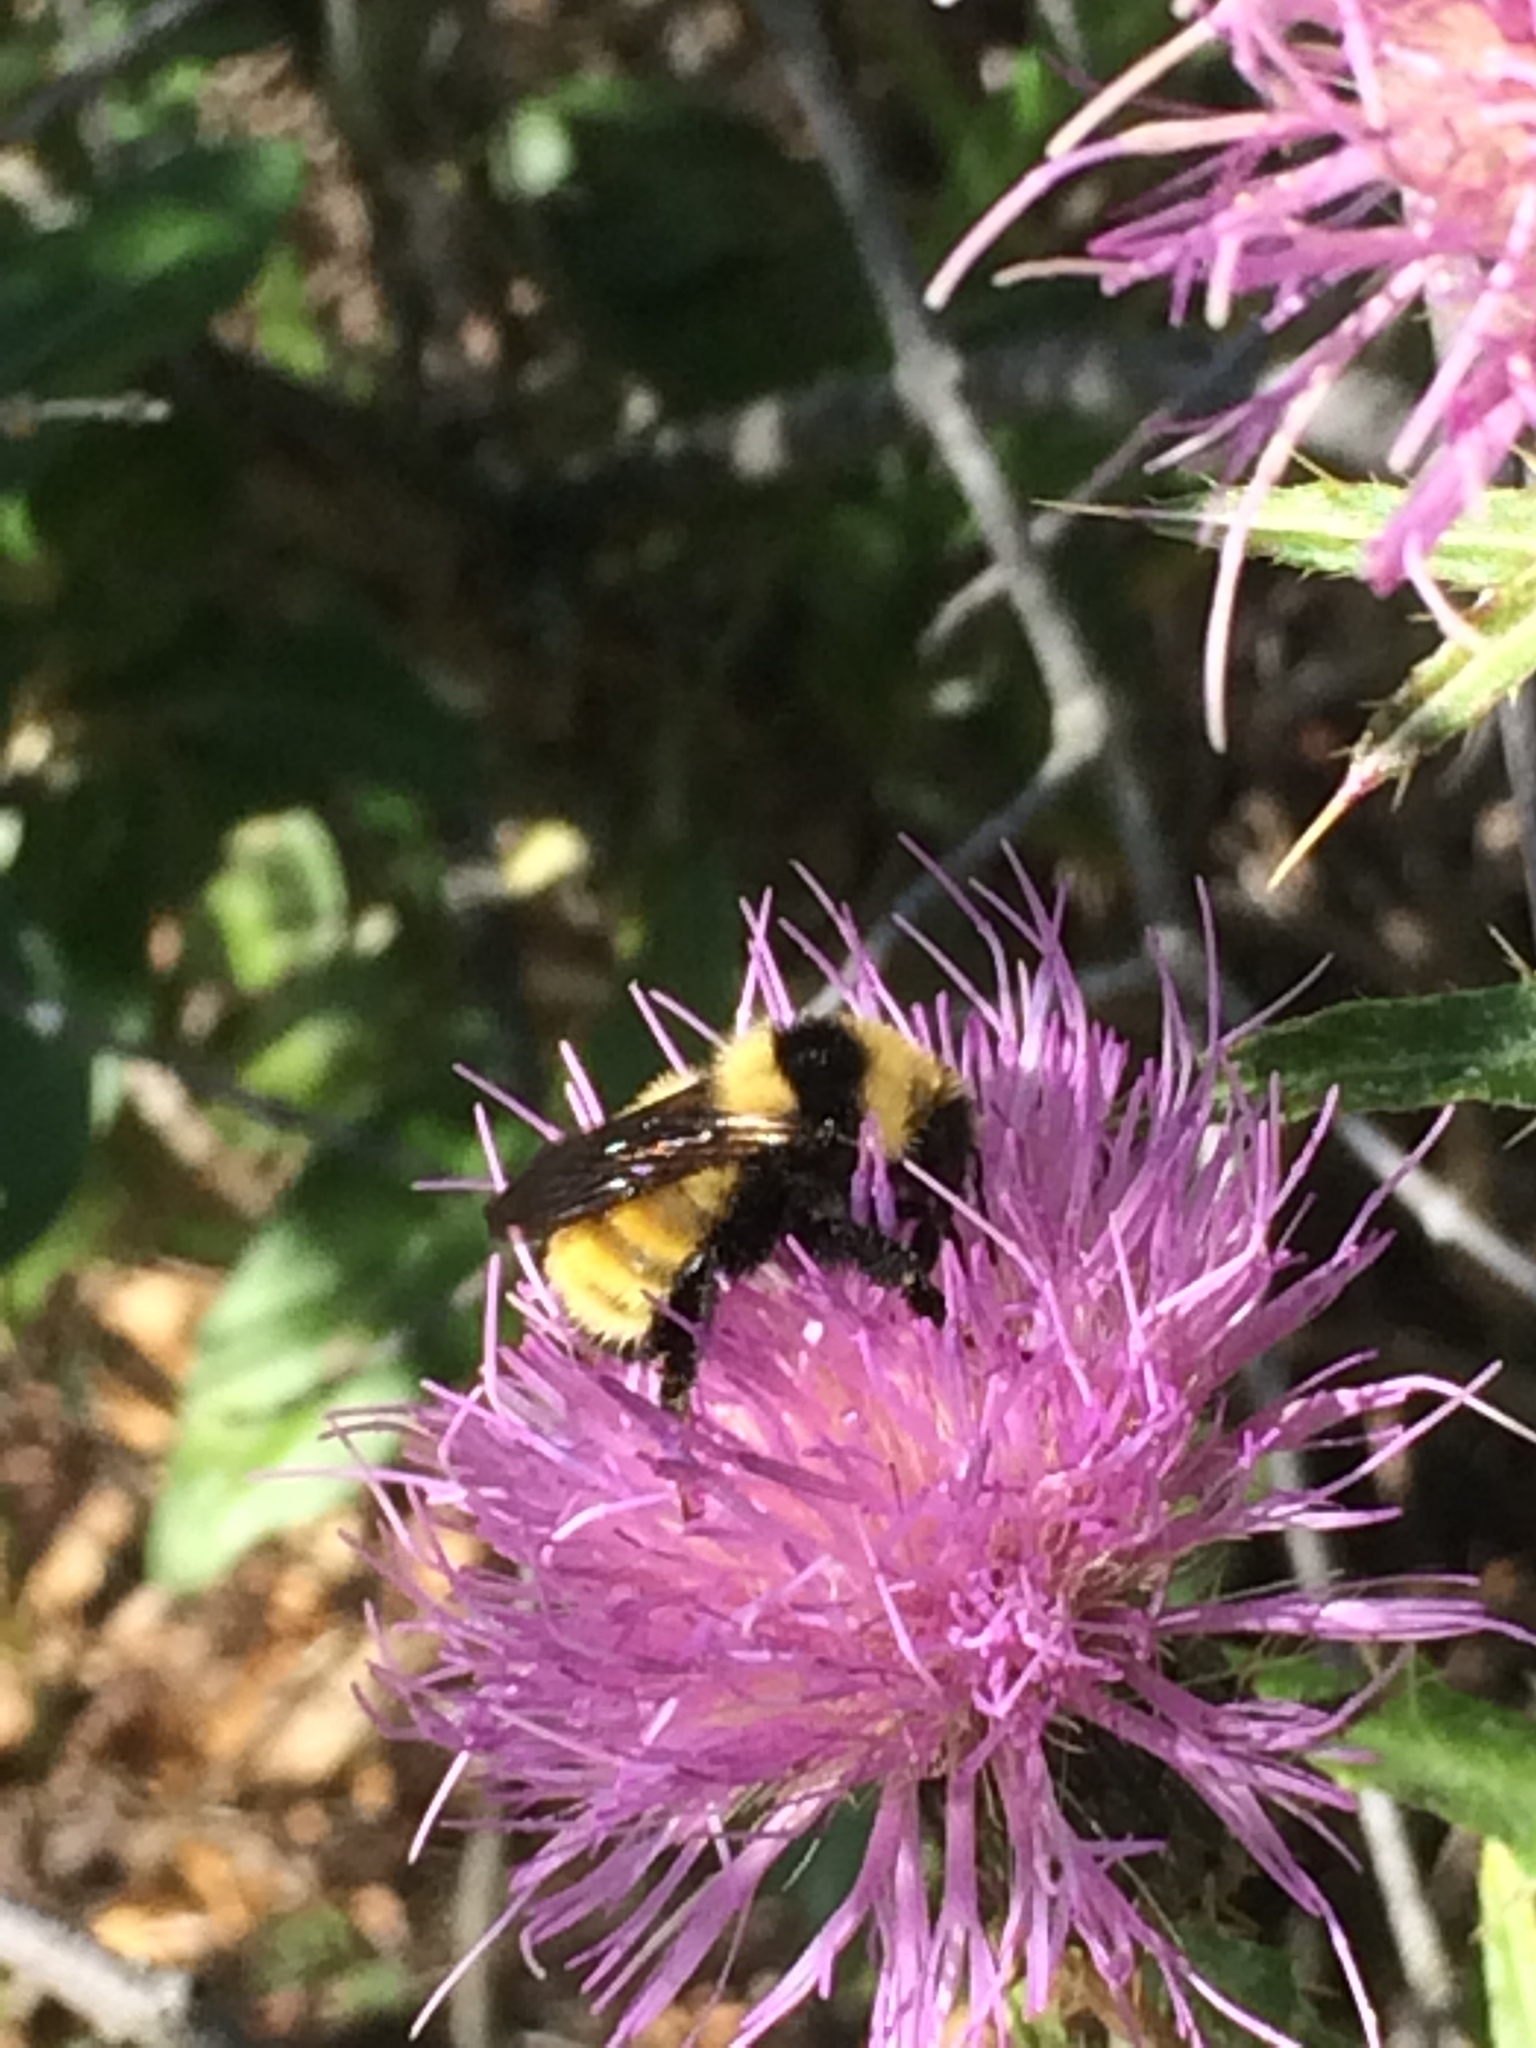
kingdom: Animalia
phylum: Arthropoda
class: Insecta
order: Hymenoptera
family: Apidae
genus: Bombus
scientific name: Bombus borealis
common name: Northern amber bumble bee
